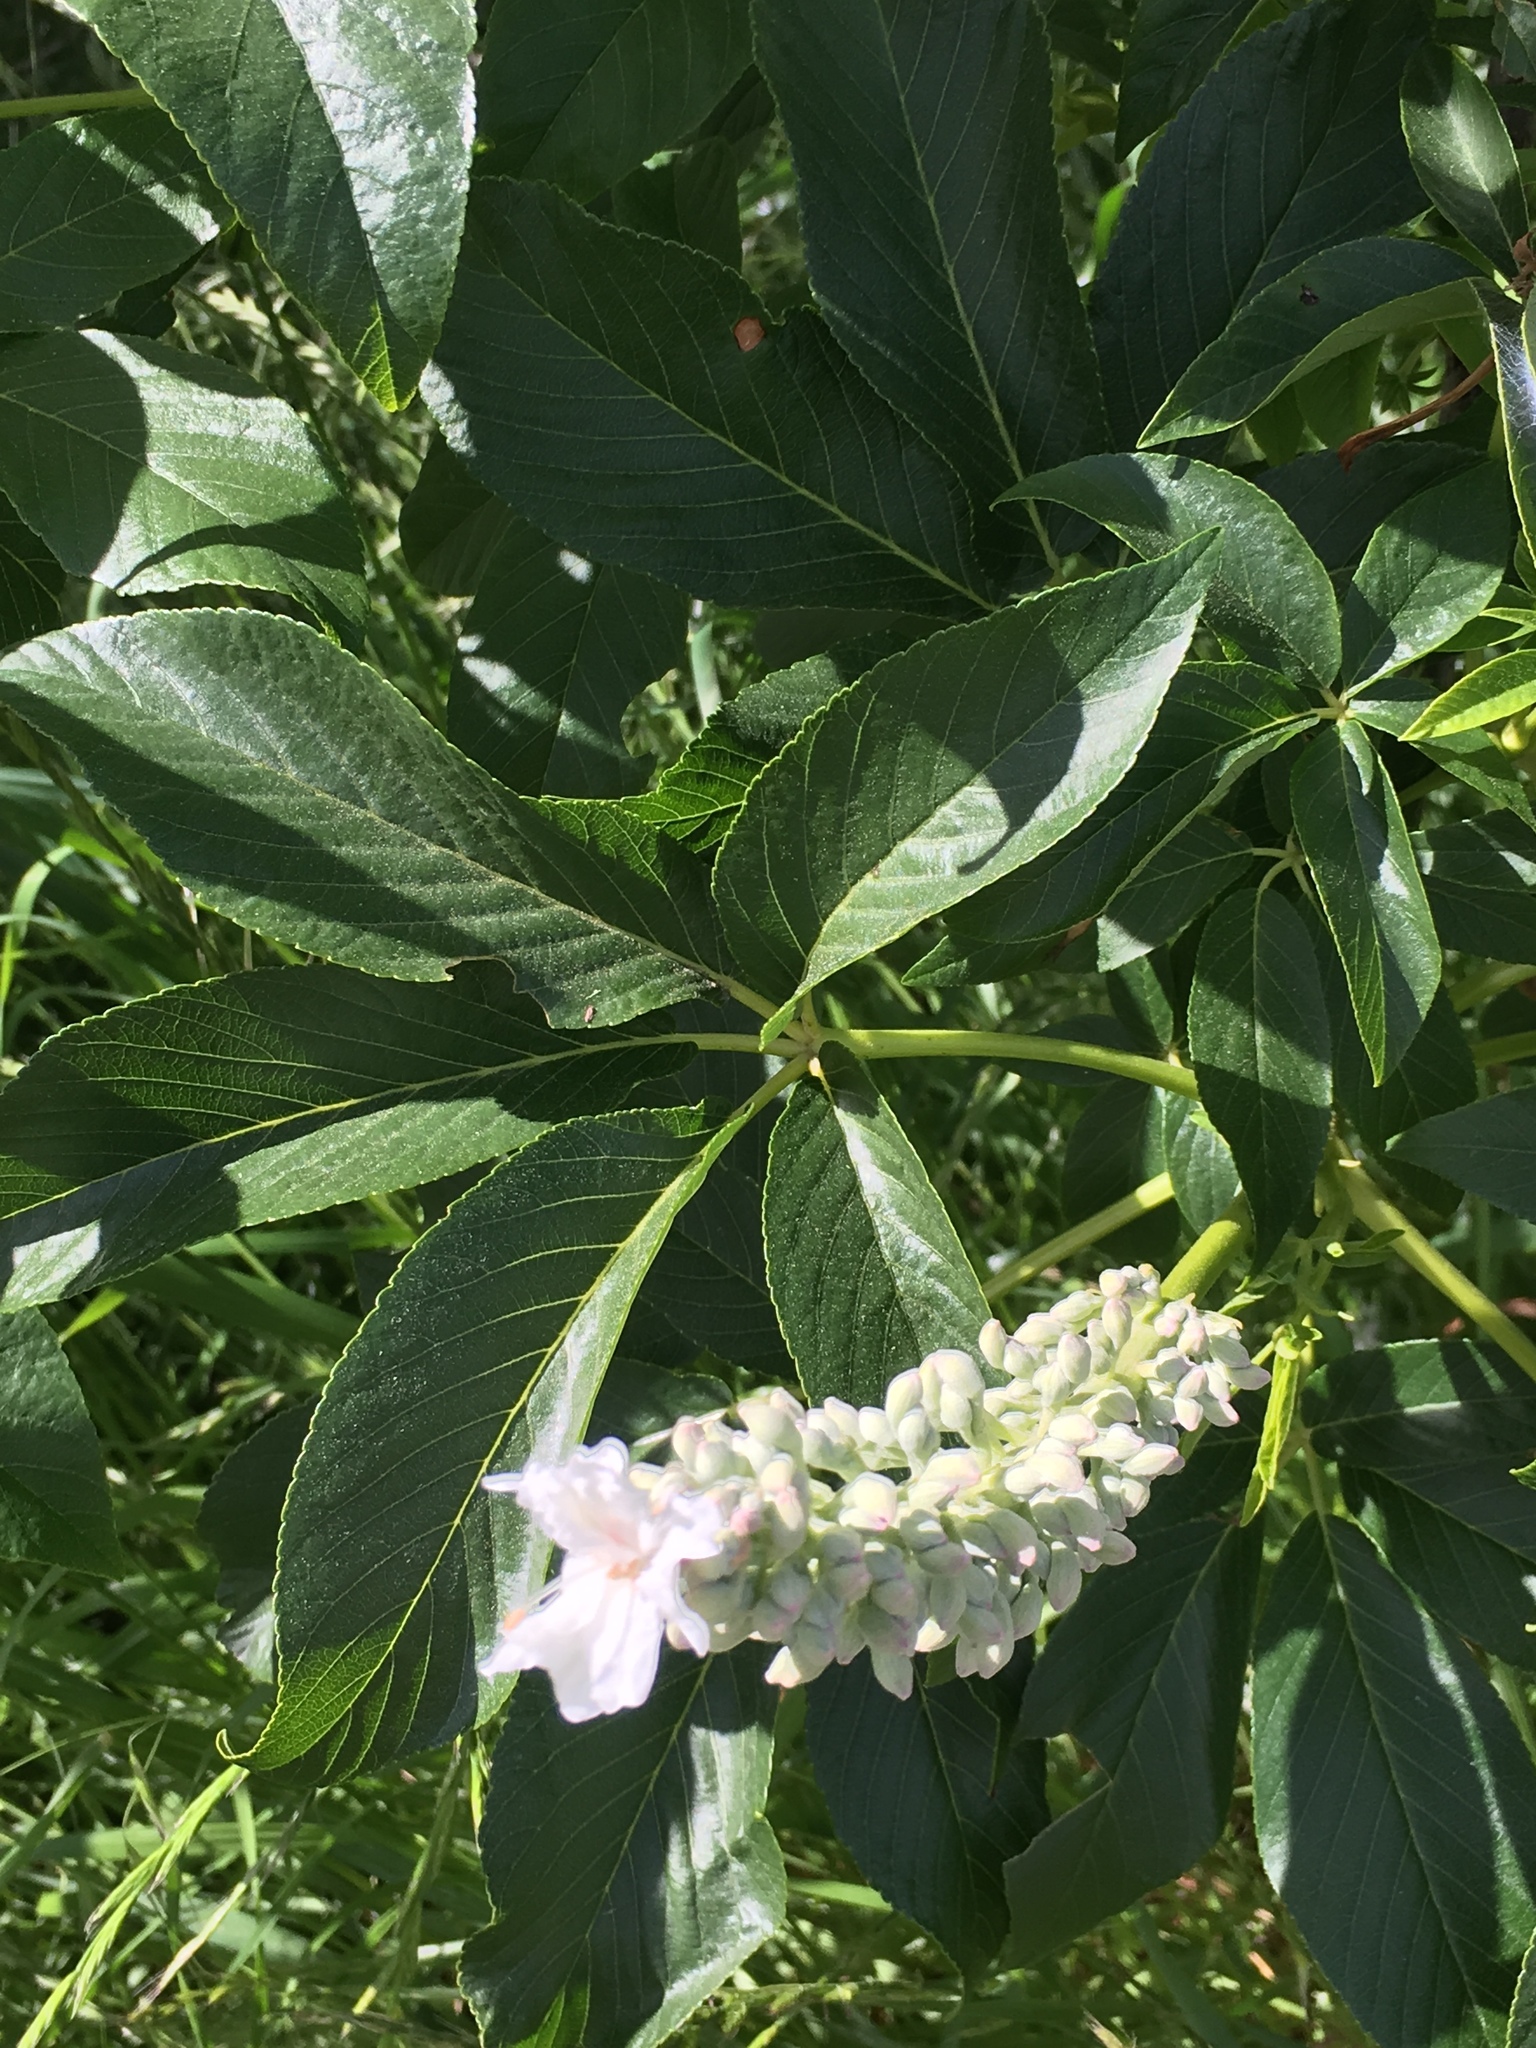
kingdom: Plantae
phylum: Tracheophyta
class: Magnoliopsida
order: Sapindales
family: Sapindaceae
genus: Aesculus
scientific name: Aesculus californica
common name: California buckeye
